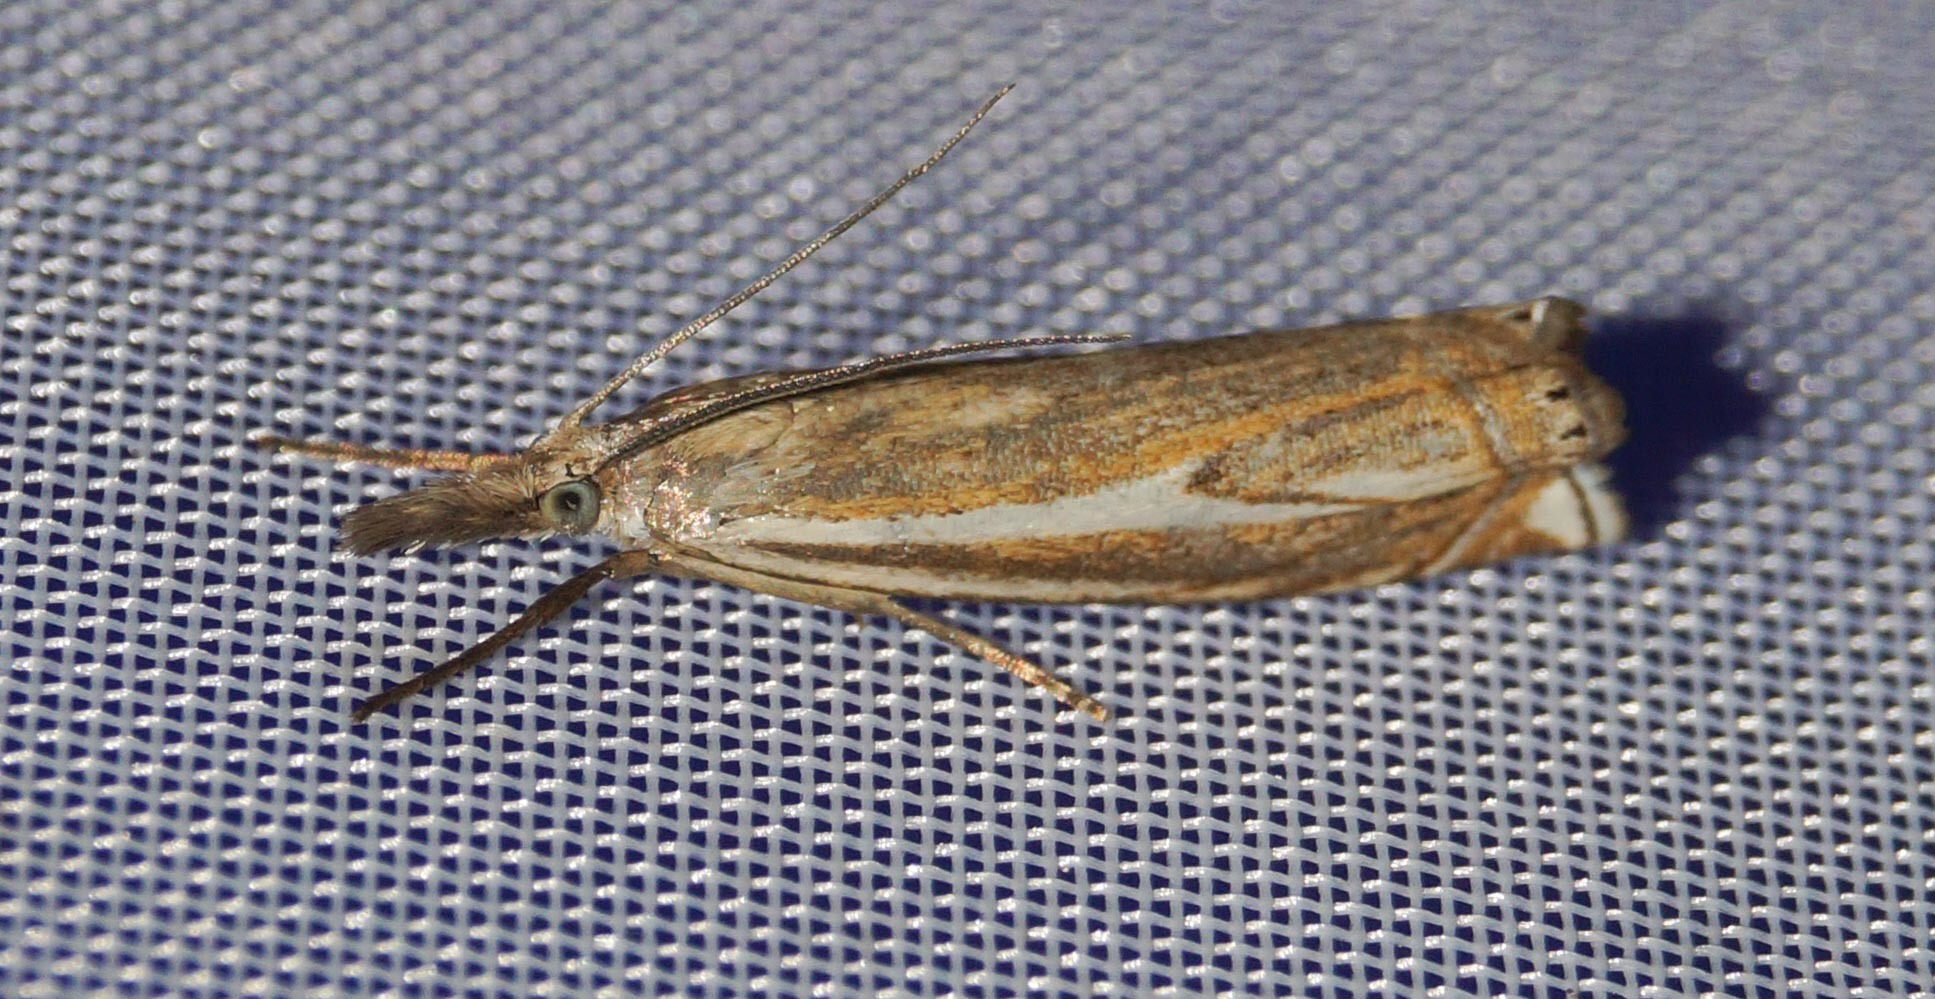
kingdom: Animalia
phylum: Arthropoda
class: Insecta
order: Lepidoptera
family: Crambidae
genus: Crambus
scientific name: Crambus nemorella
